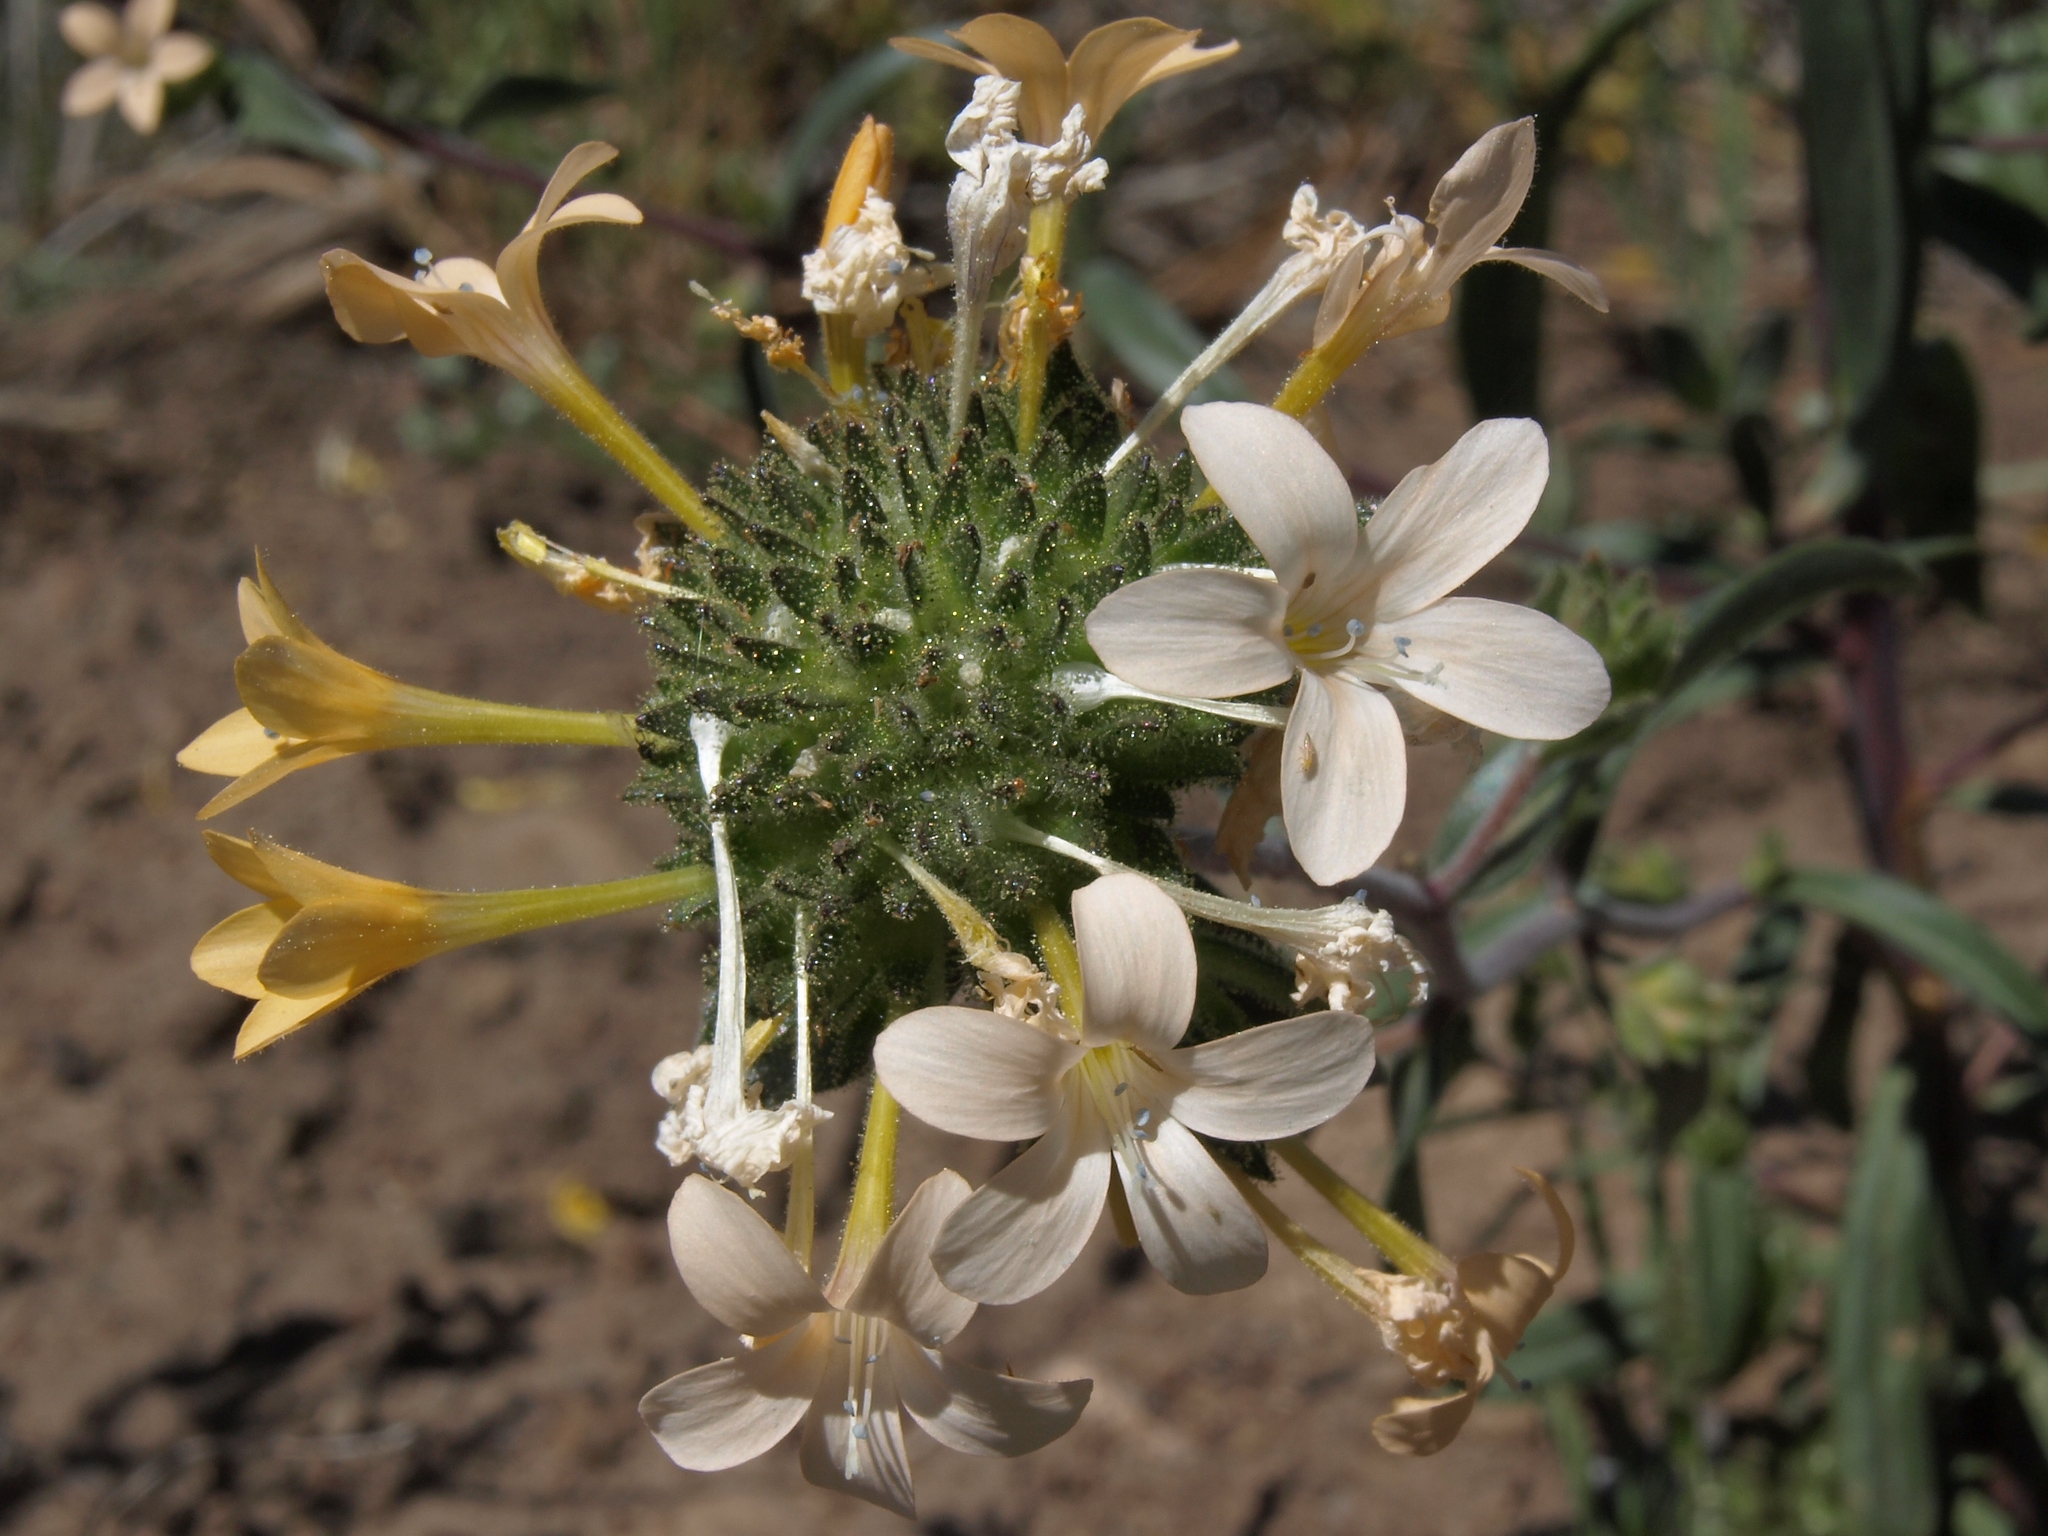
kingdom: Plantae
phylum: Tracheophyta
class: Magnoliopsida
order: Ericales
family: Polemoniaceae
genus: Collomia
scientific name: Collomia grandiflora
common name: California strawflower
